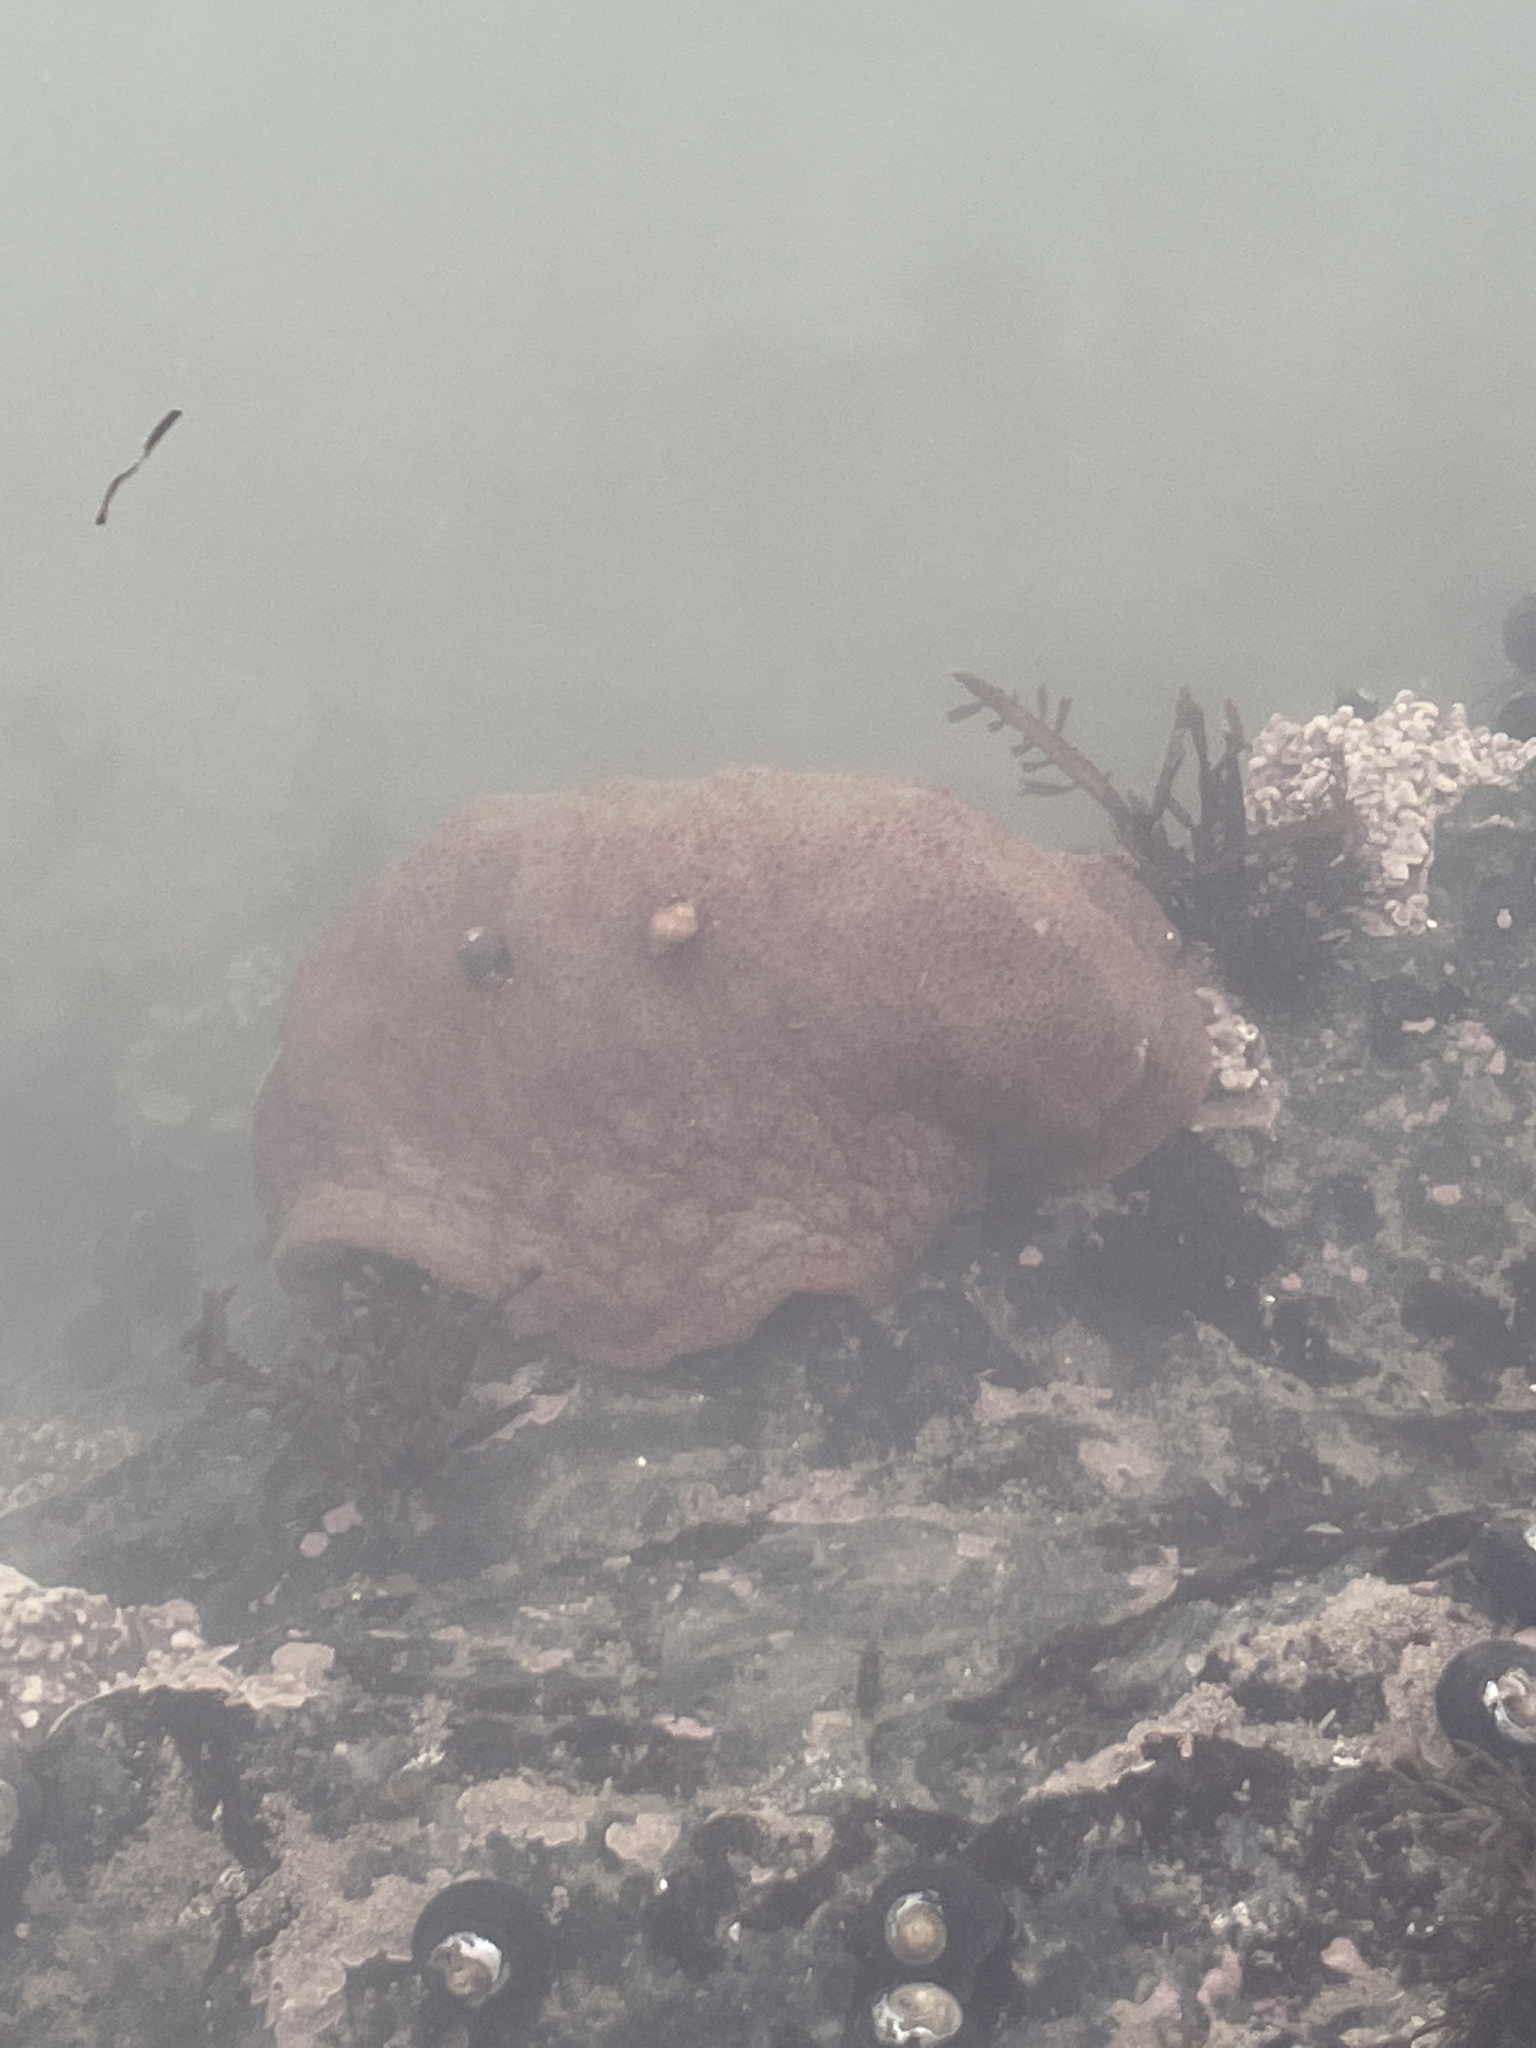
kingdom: Animalia
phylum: Mollusca
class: Polyplacophora
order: Chitonida
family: Acanthochitonidae
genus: Cryptochiton
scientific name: Cryptochiton stelleri
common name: Giant pacific chiton
